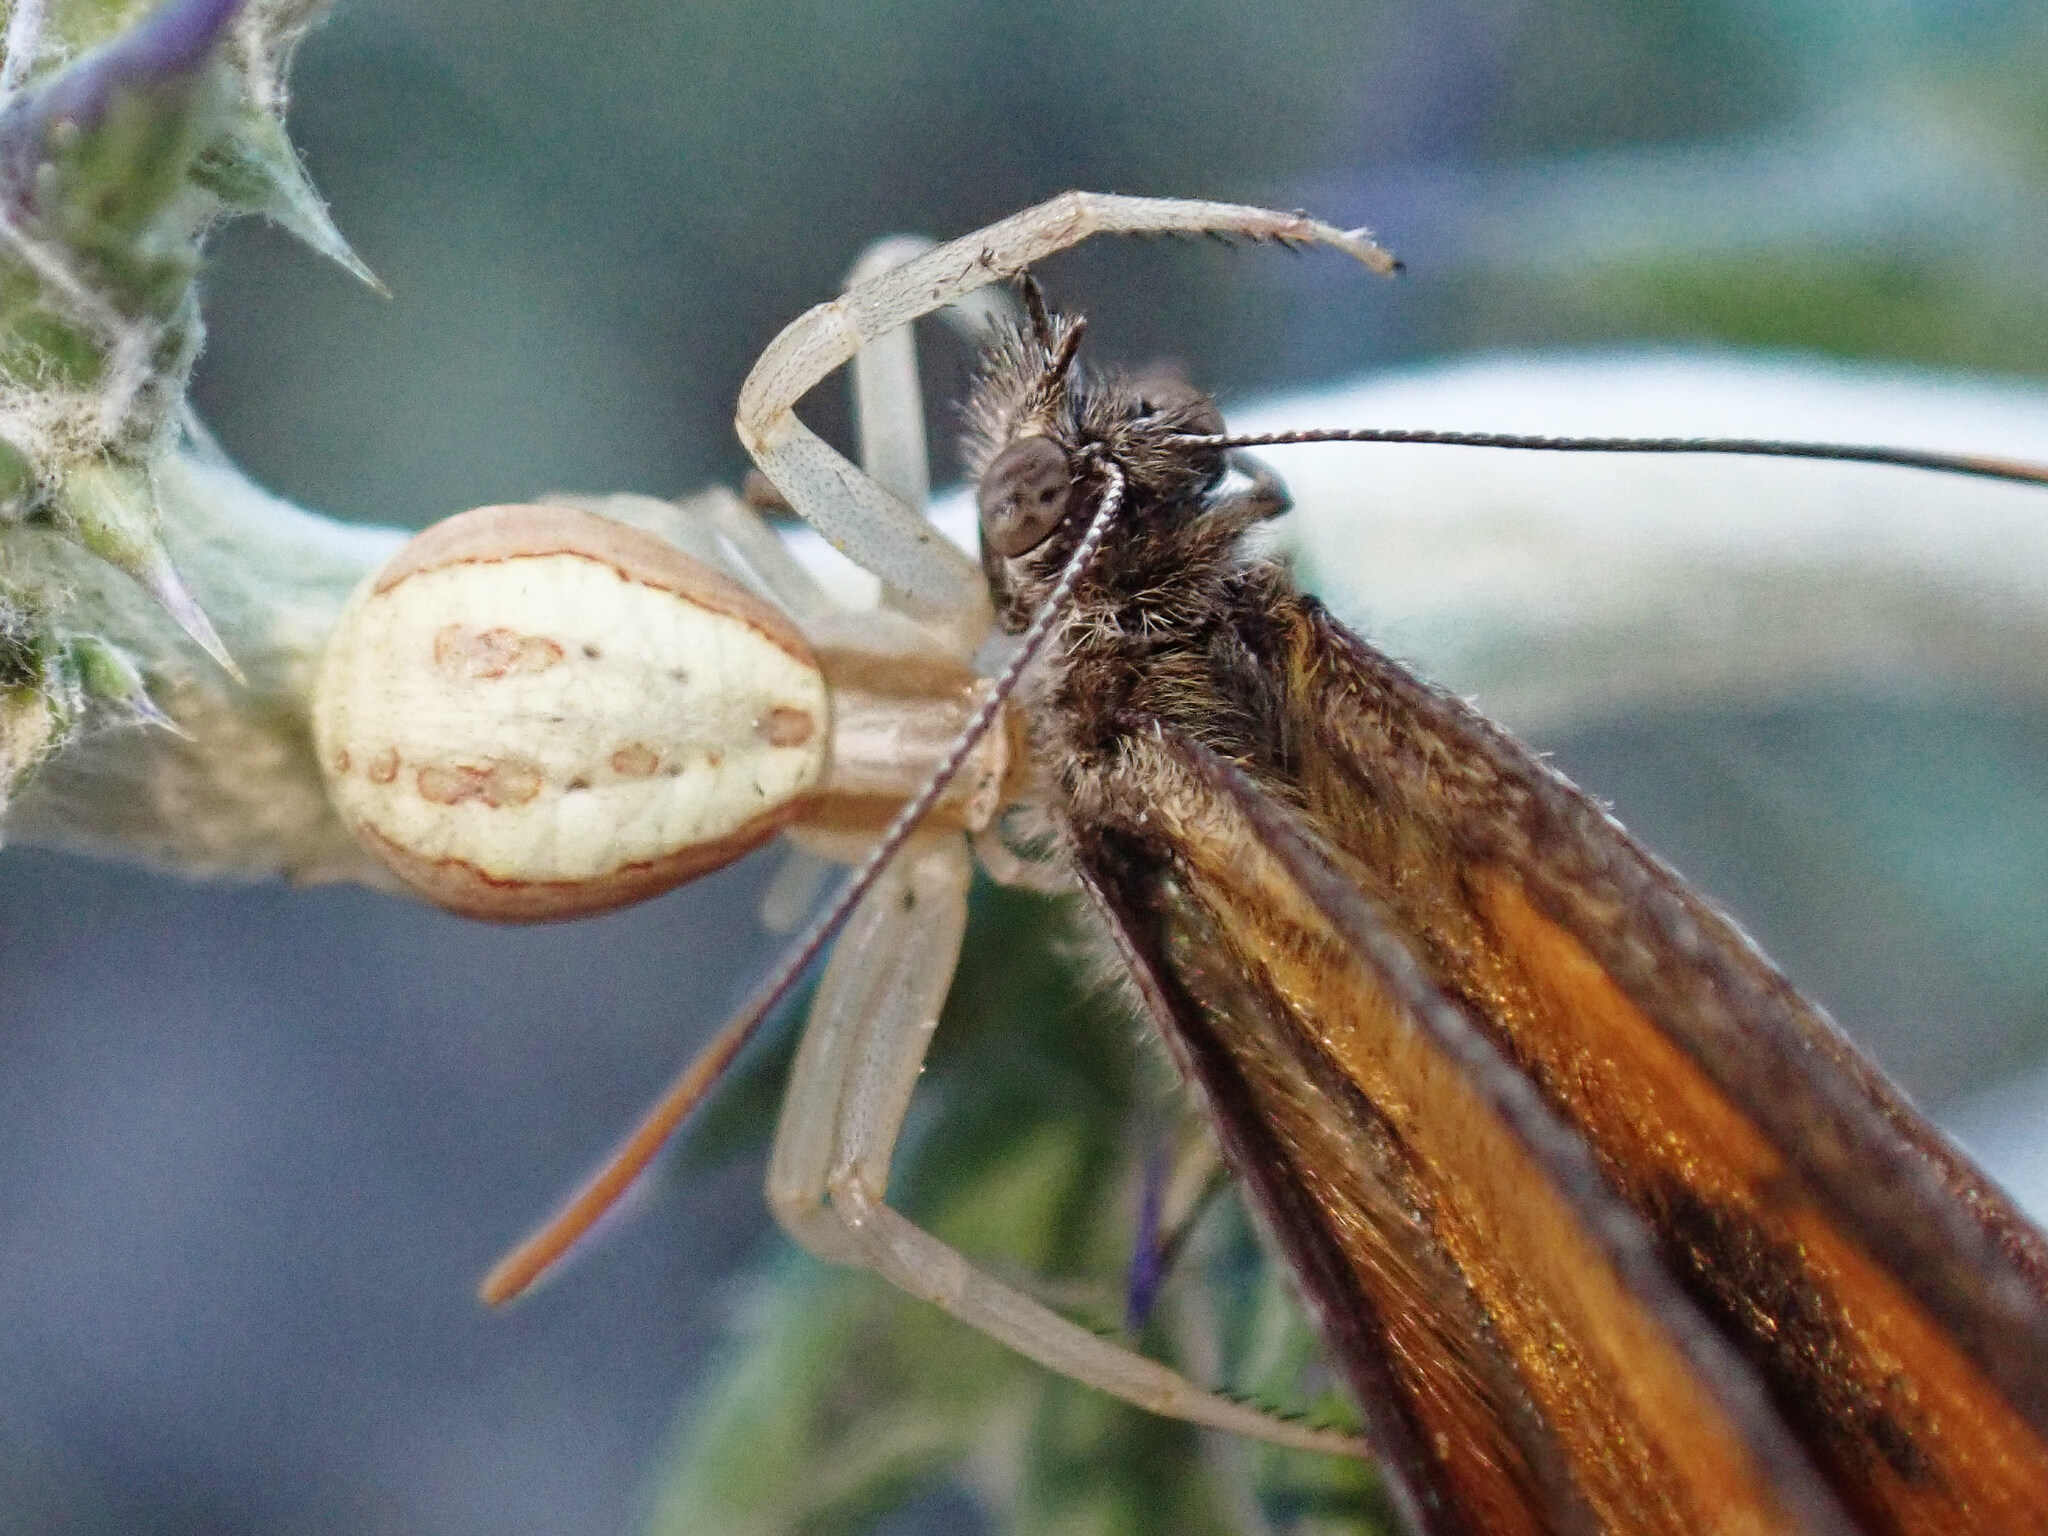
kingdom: Animalia
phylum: Arthropoda
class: Arachnida
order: Araneae
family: Thomisidae
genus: Runcinia
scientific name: Runcinia grammica
